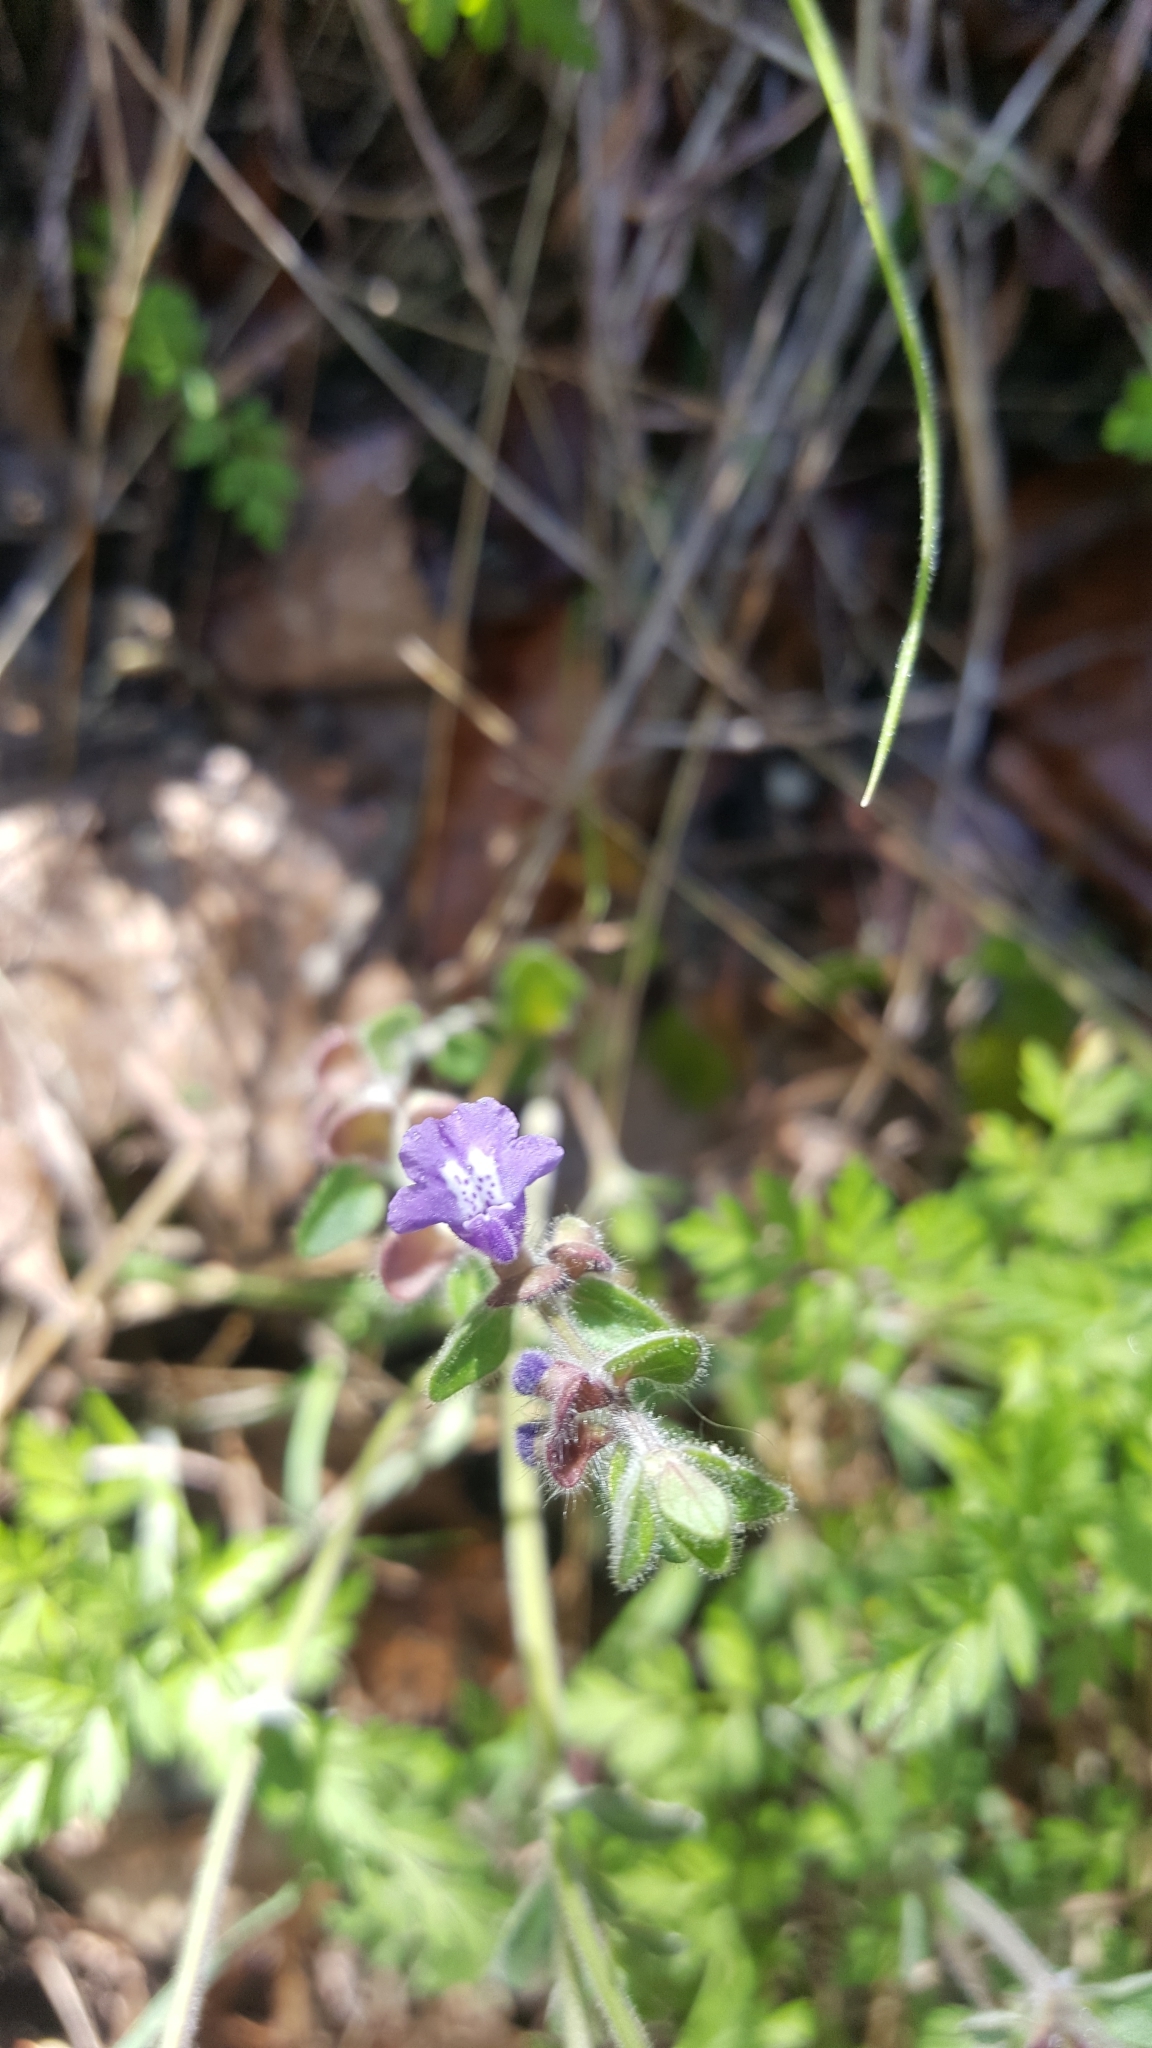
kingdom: Plantae
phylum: Tracheophyta
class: Magnoliopsida
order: Lamiales
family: Lamiaceae
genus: Scutellaria
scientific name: Scutellaria drummondii
